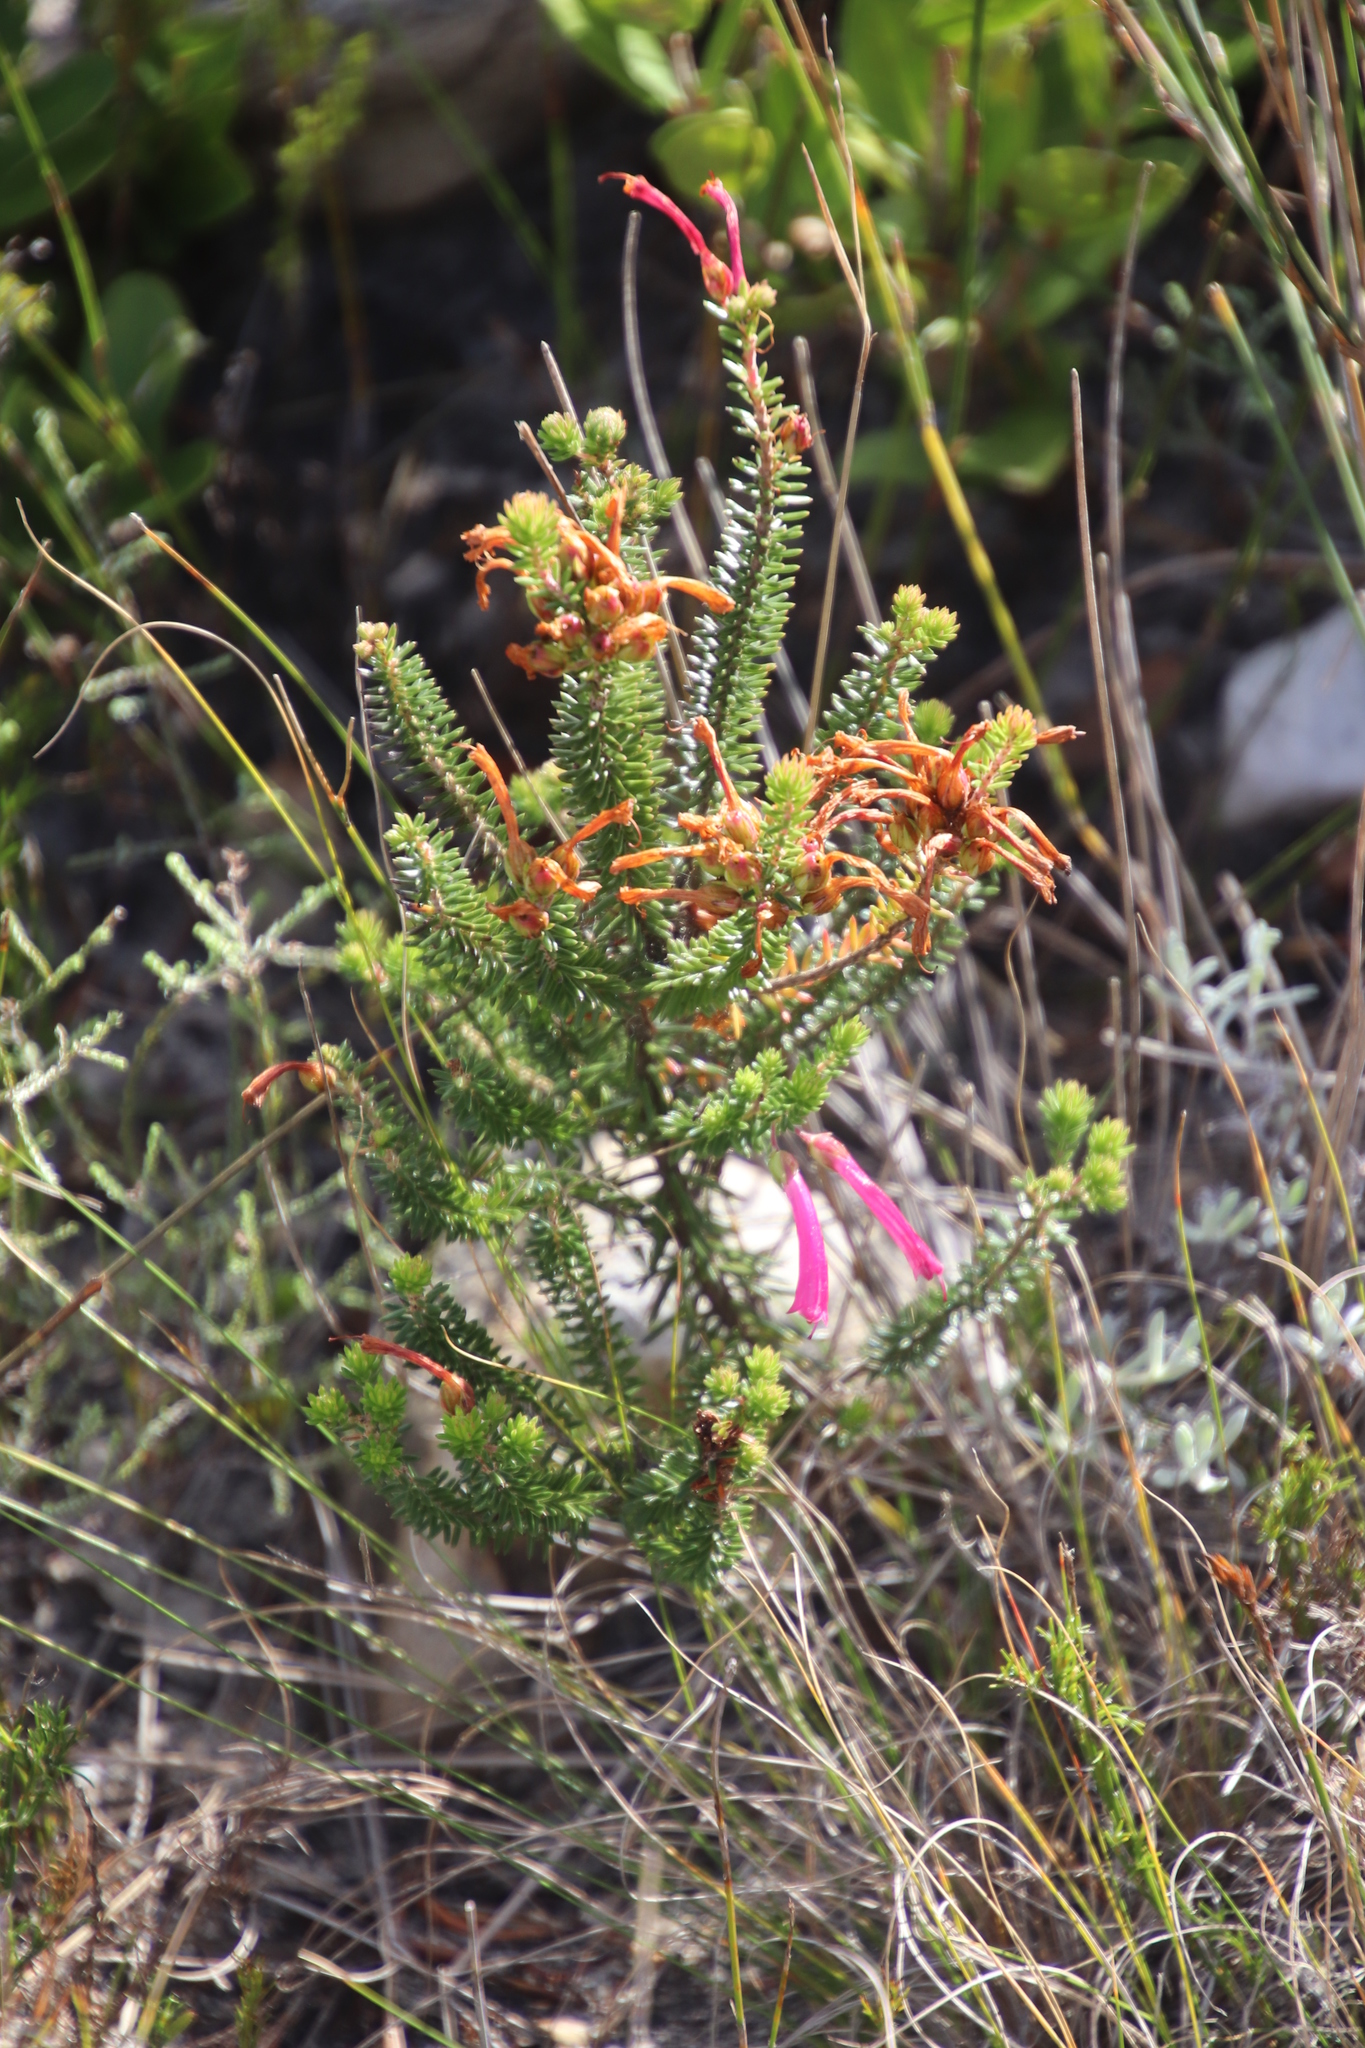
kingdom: Plantae
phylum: Tracheophyta
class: Magnoliopsida
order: Ericales
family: Ericaceae
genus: Erica
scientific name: Erica abietina
